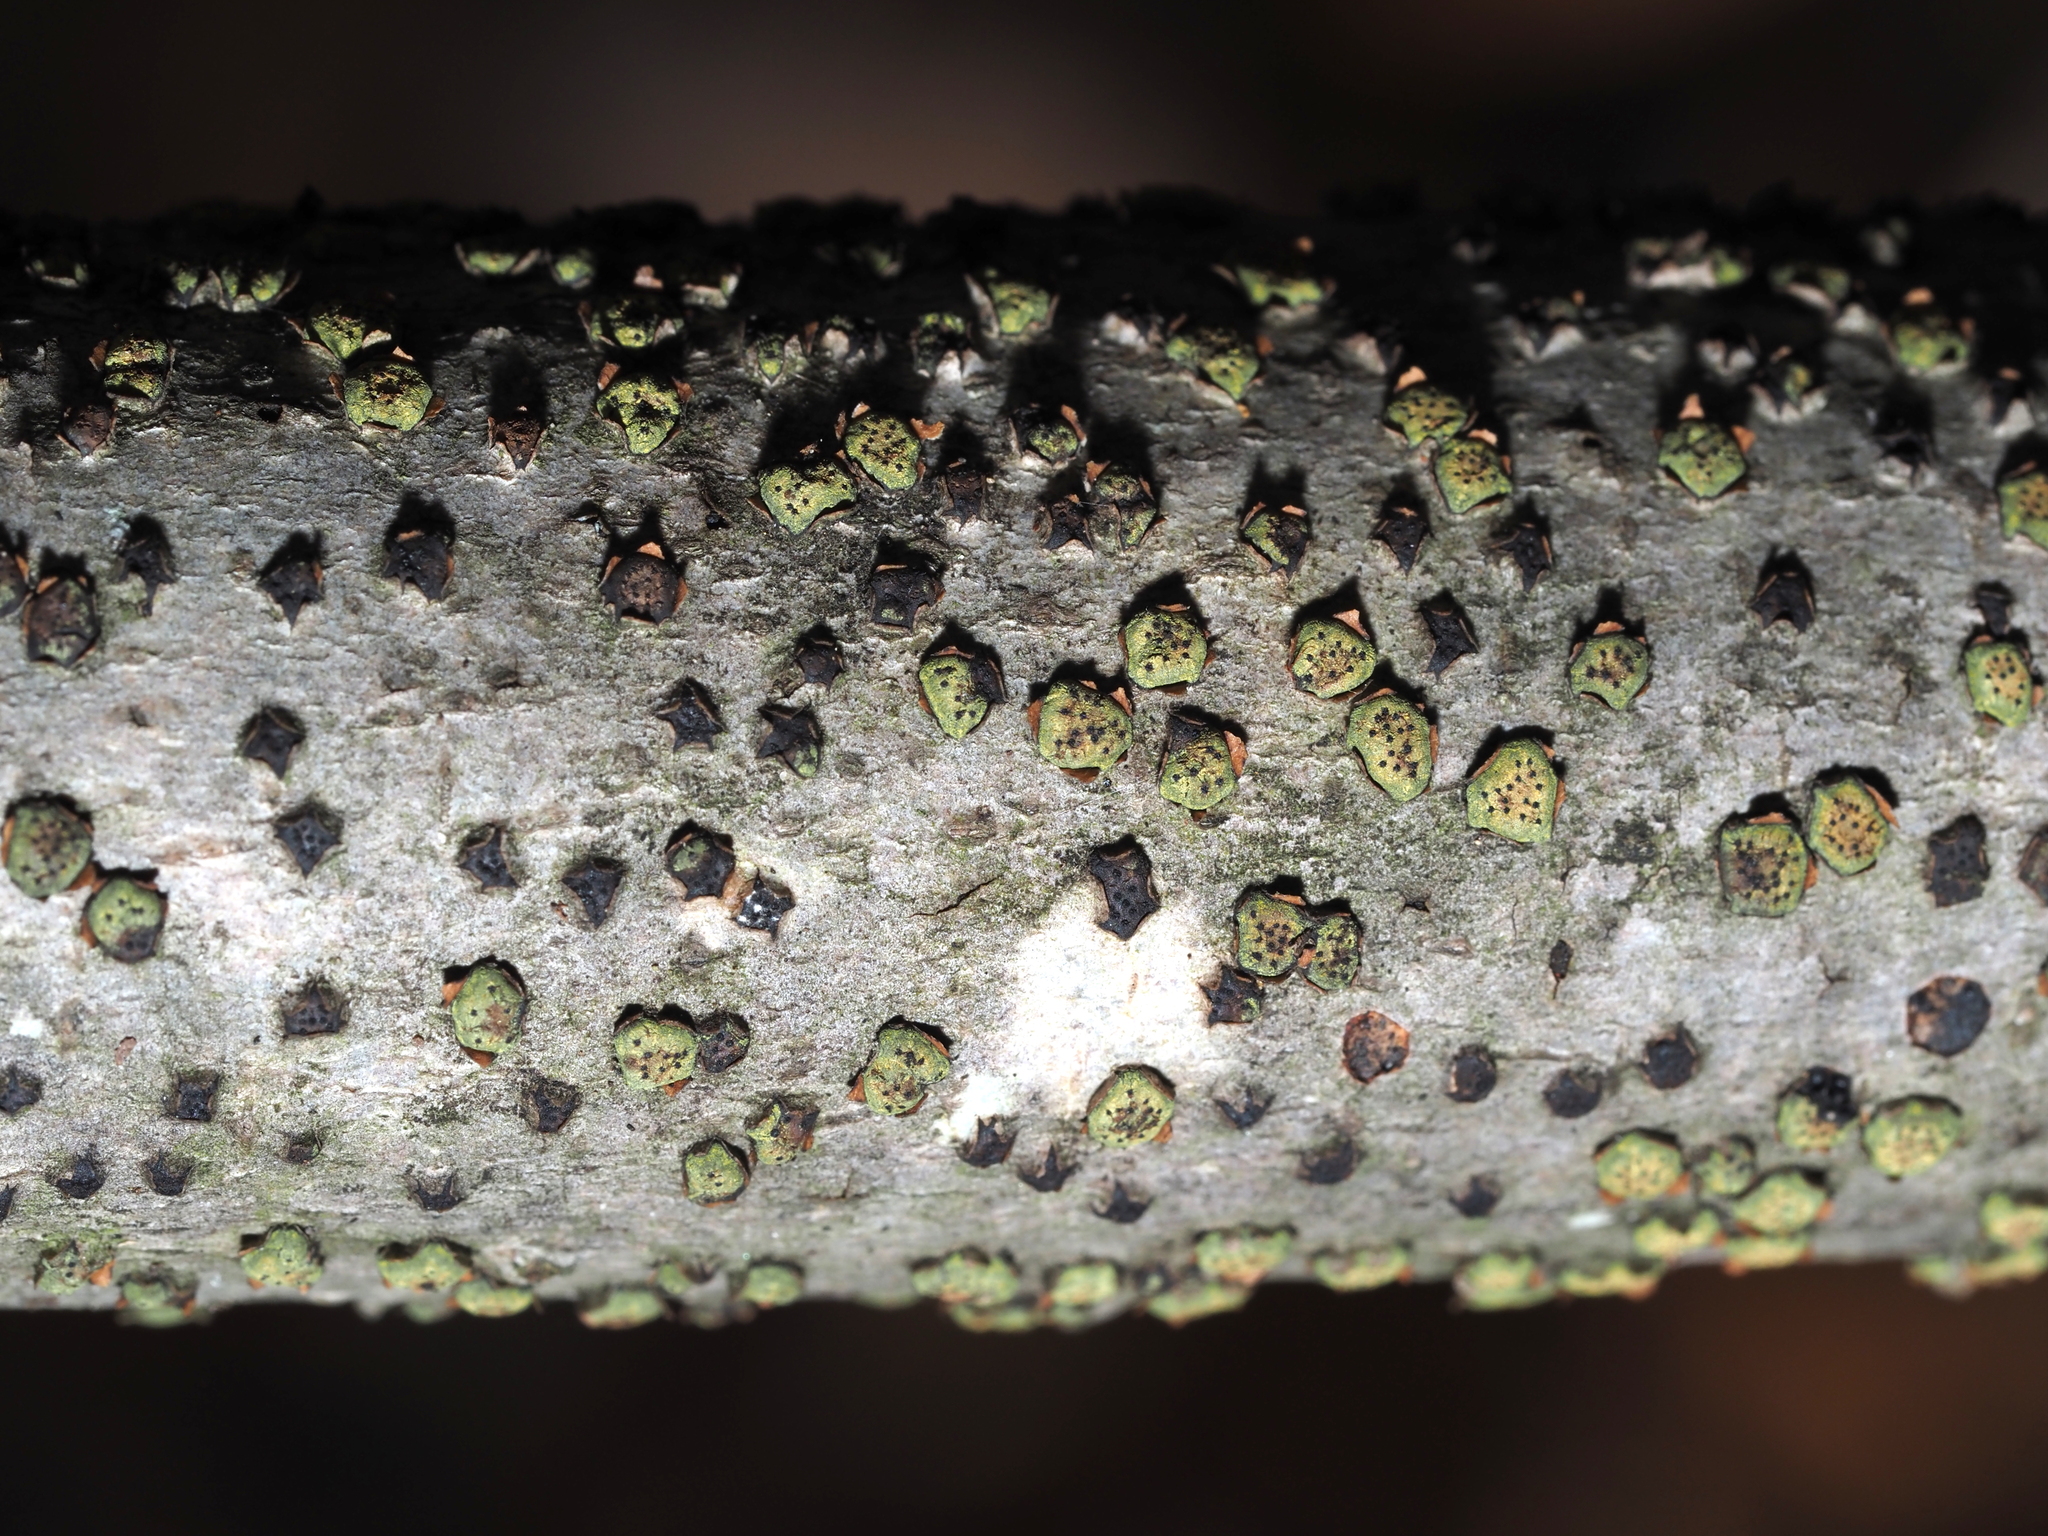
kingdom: Fungi
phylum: Ascomycota
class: Sordariomycetes
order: Xylariales
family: Diatrypaceae
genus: Diatrype
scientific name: Diatrype virescens
